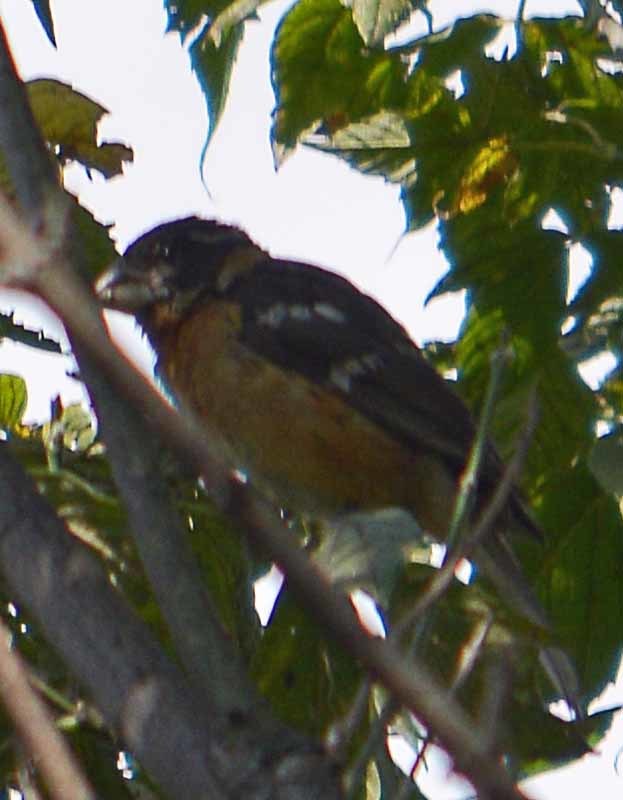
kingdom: Animalia
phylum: Chordata
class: Aves
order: Passeriformes
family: Cardinalidae
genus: Pheucticus
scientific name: Pheucticus melanocephalus
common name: Black-headed grosbeak
